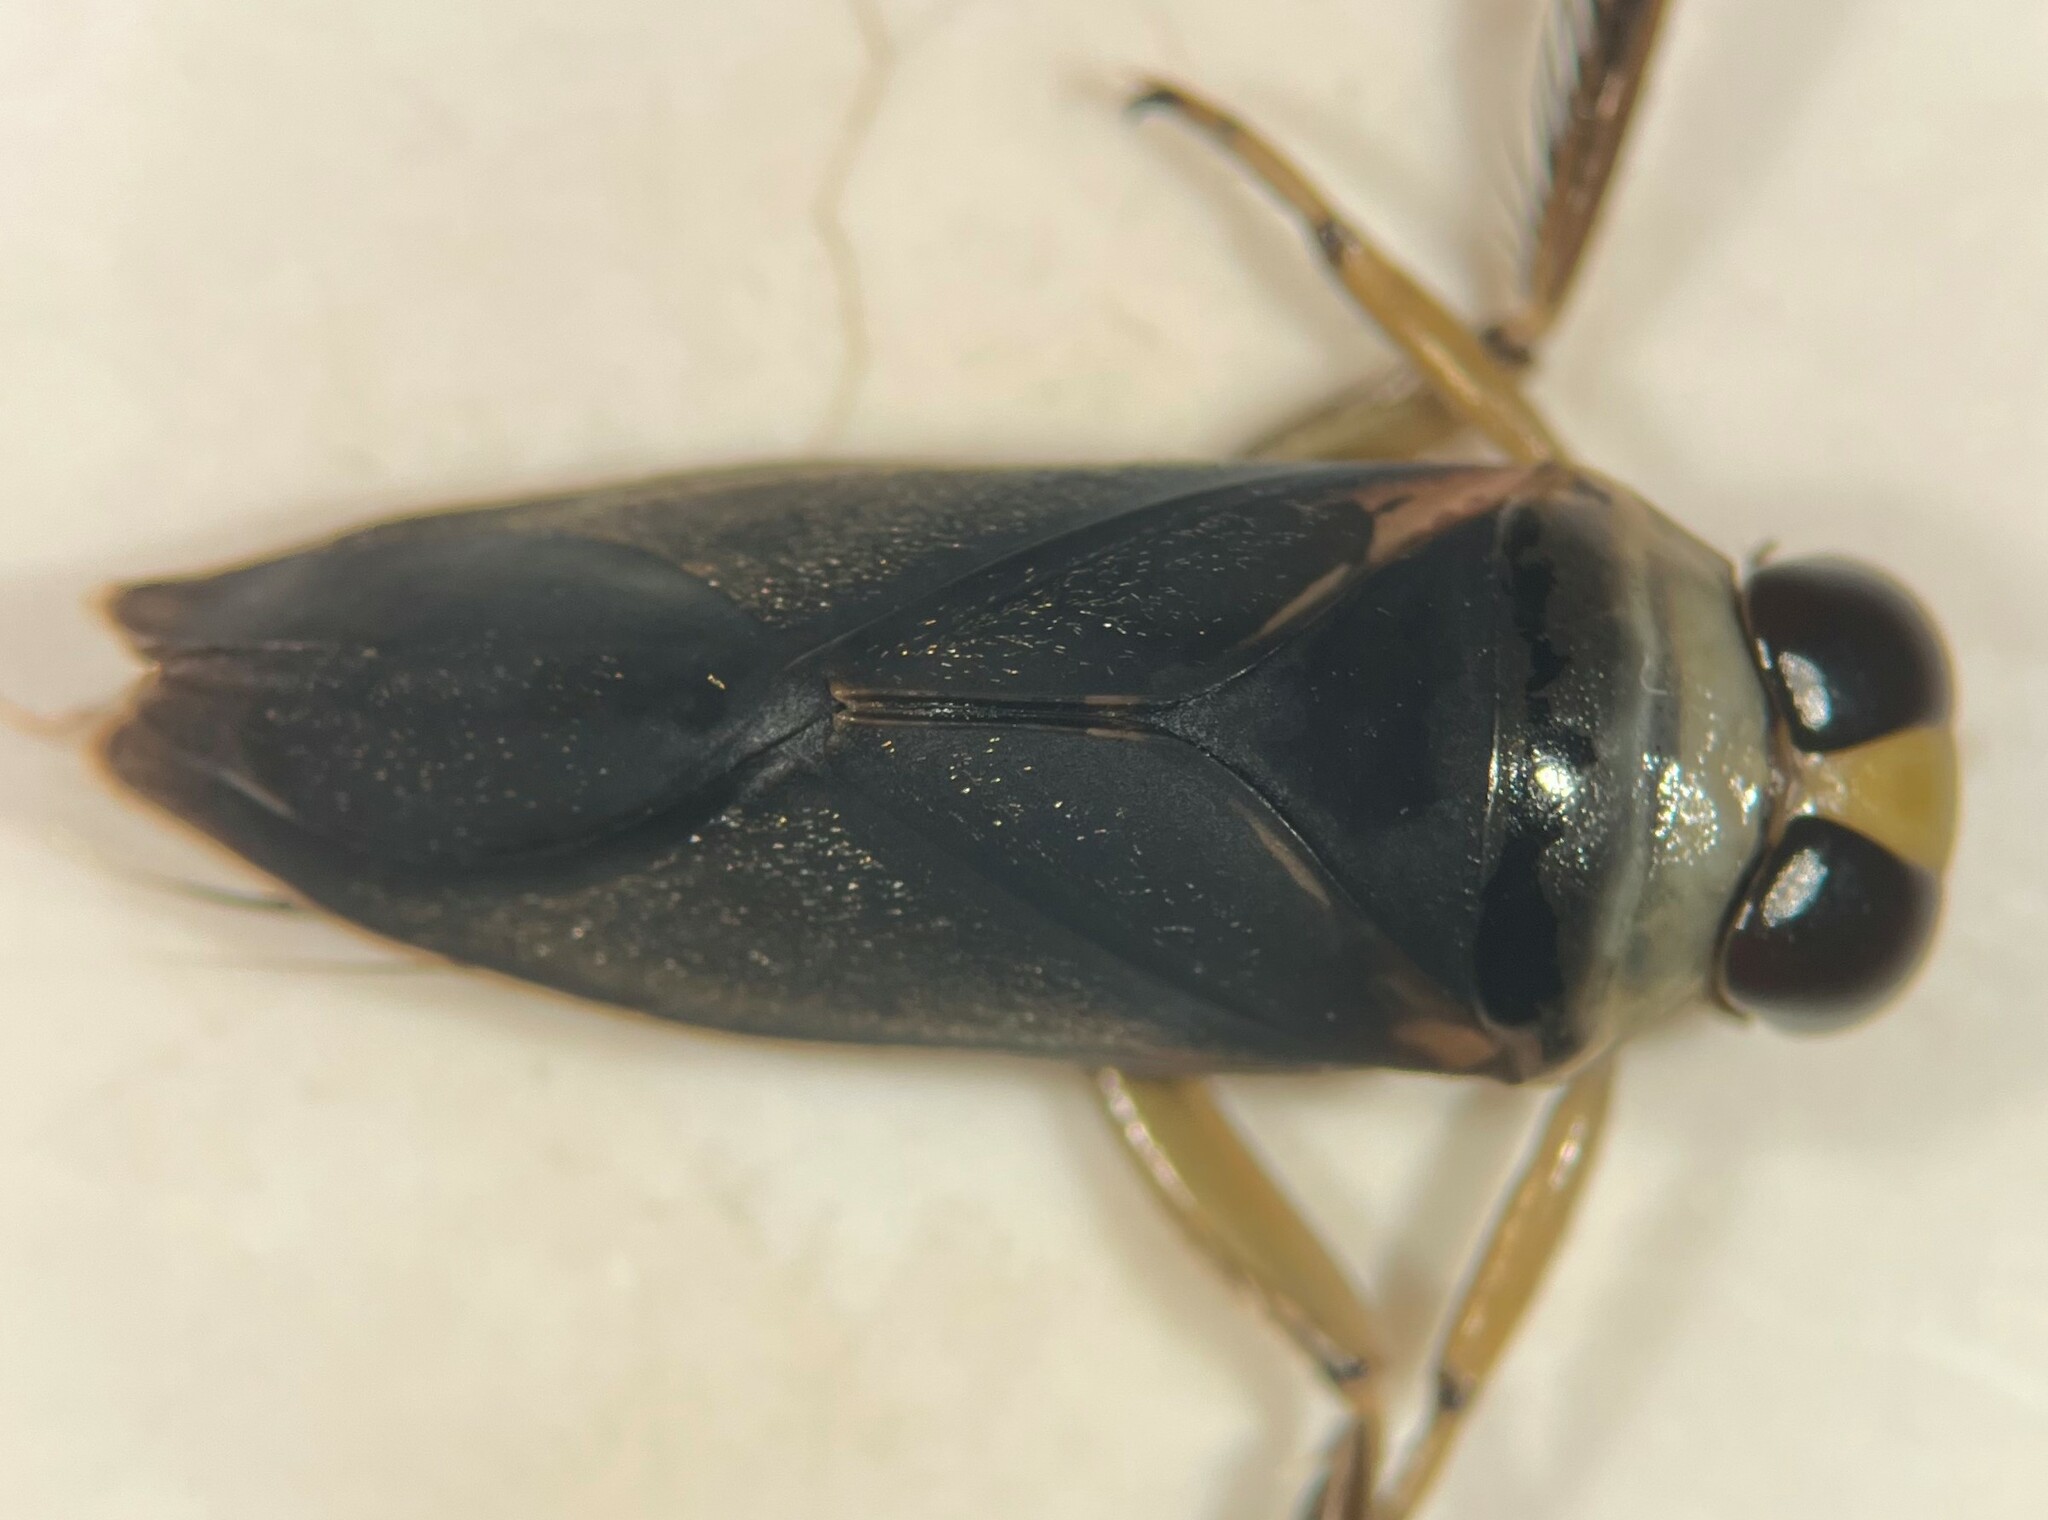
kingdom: Animalia
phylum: Arthropoda
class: Insecta
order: Hemiptera
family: Notonectidae
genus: Notonecta
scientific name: Notonecta lobata
